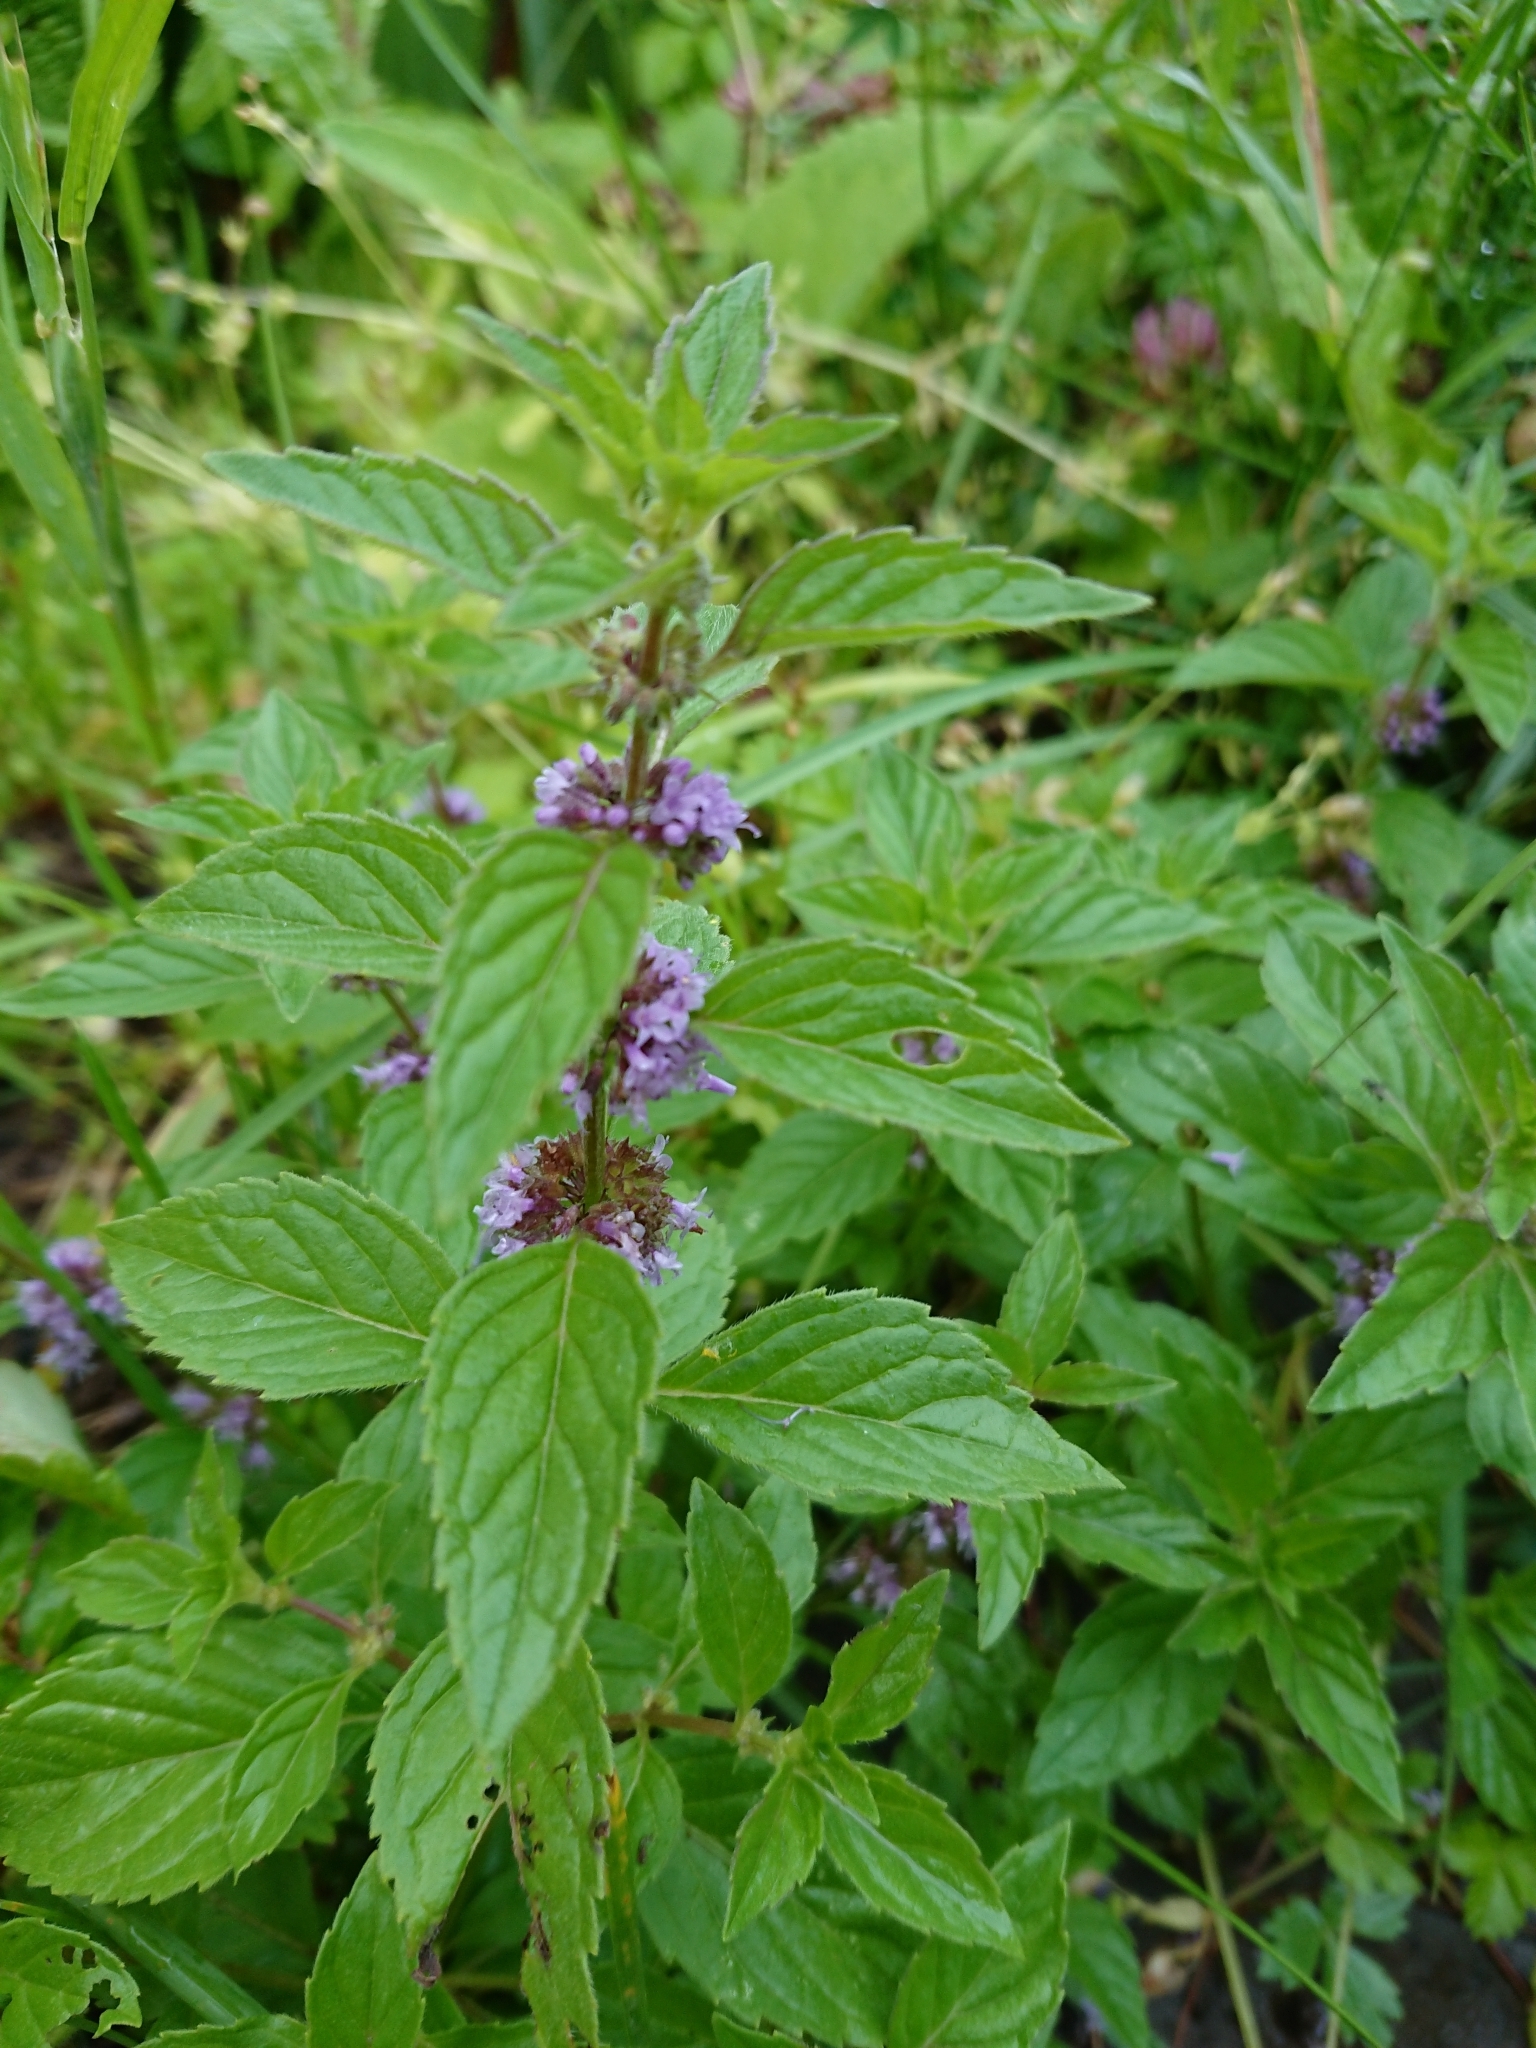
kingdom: Plantae
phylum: Tracheophyta
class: Magnoliopsida
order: Lamiales
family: Lamiaceae
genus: Mentha
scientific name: Mentha arvensis
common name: Corn mint
